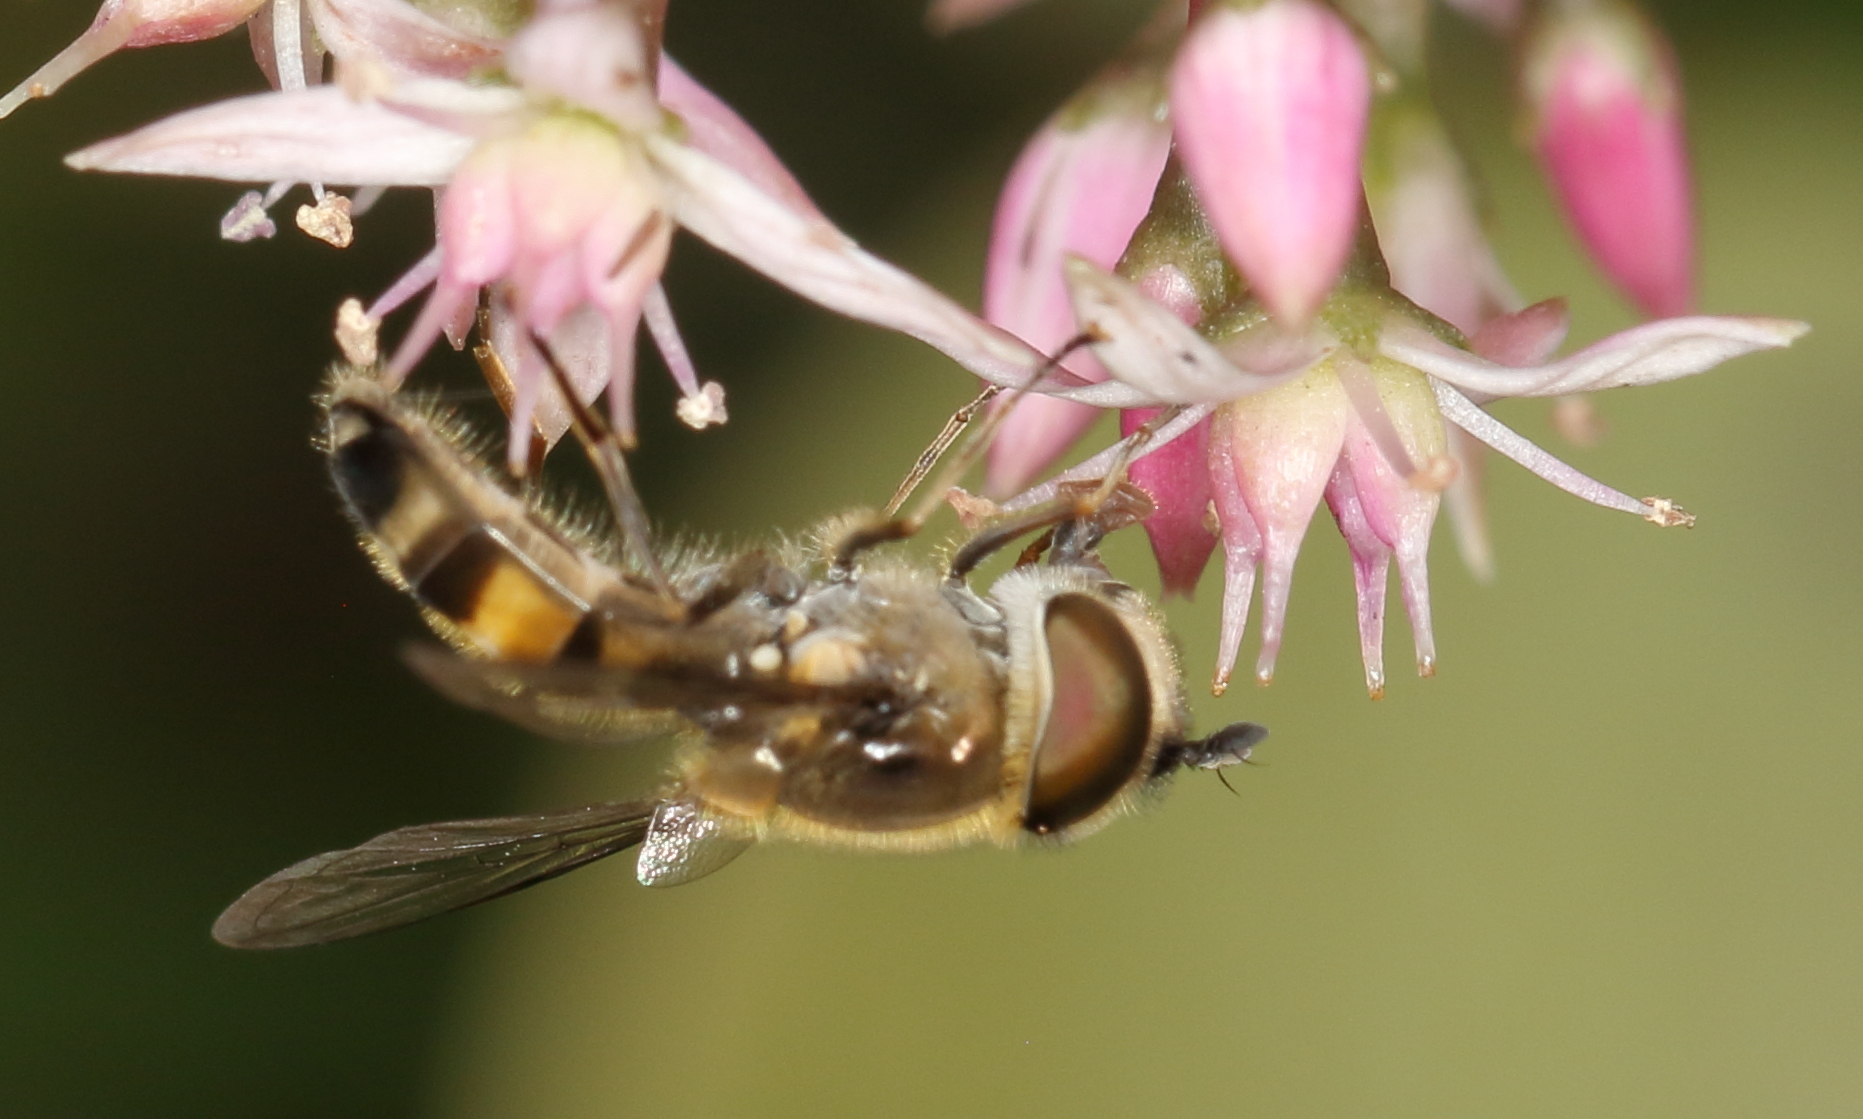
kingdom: Animalia
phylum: Arthropoda
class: Insecta
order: Diptera
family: Syrphidae
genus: Betasyrphus
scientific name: Betasyrphus adligatus
